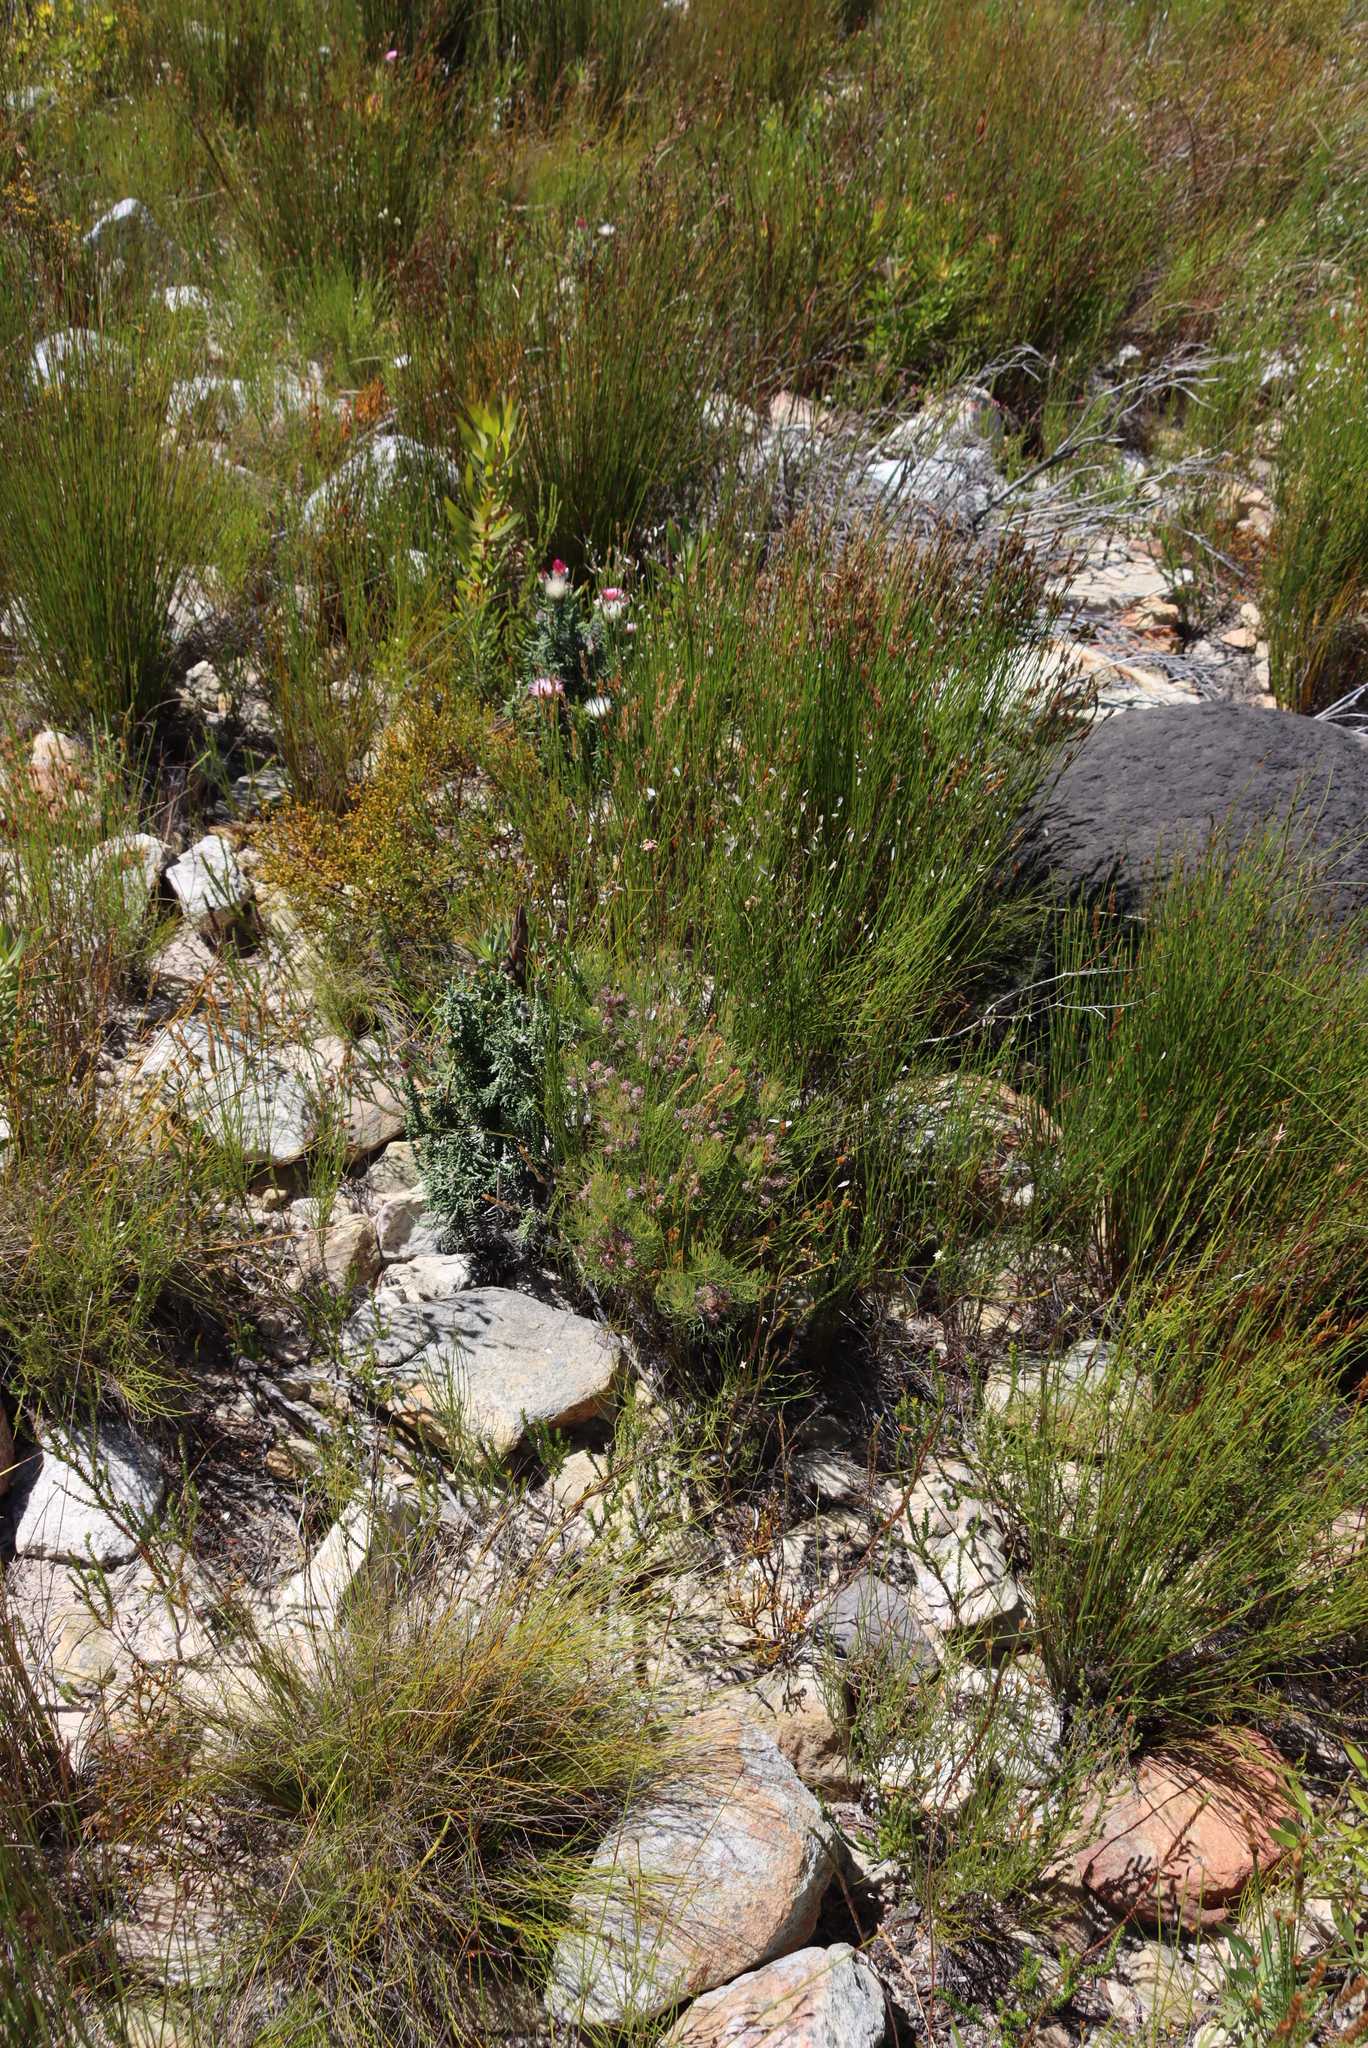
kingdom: Plantae
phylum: Tracheophyta
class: Magnoliopsida
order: Proteales
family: Proteaceae
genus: Serruria
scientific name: Serruria fasciflora
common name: Common pin spiderhead
